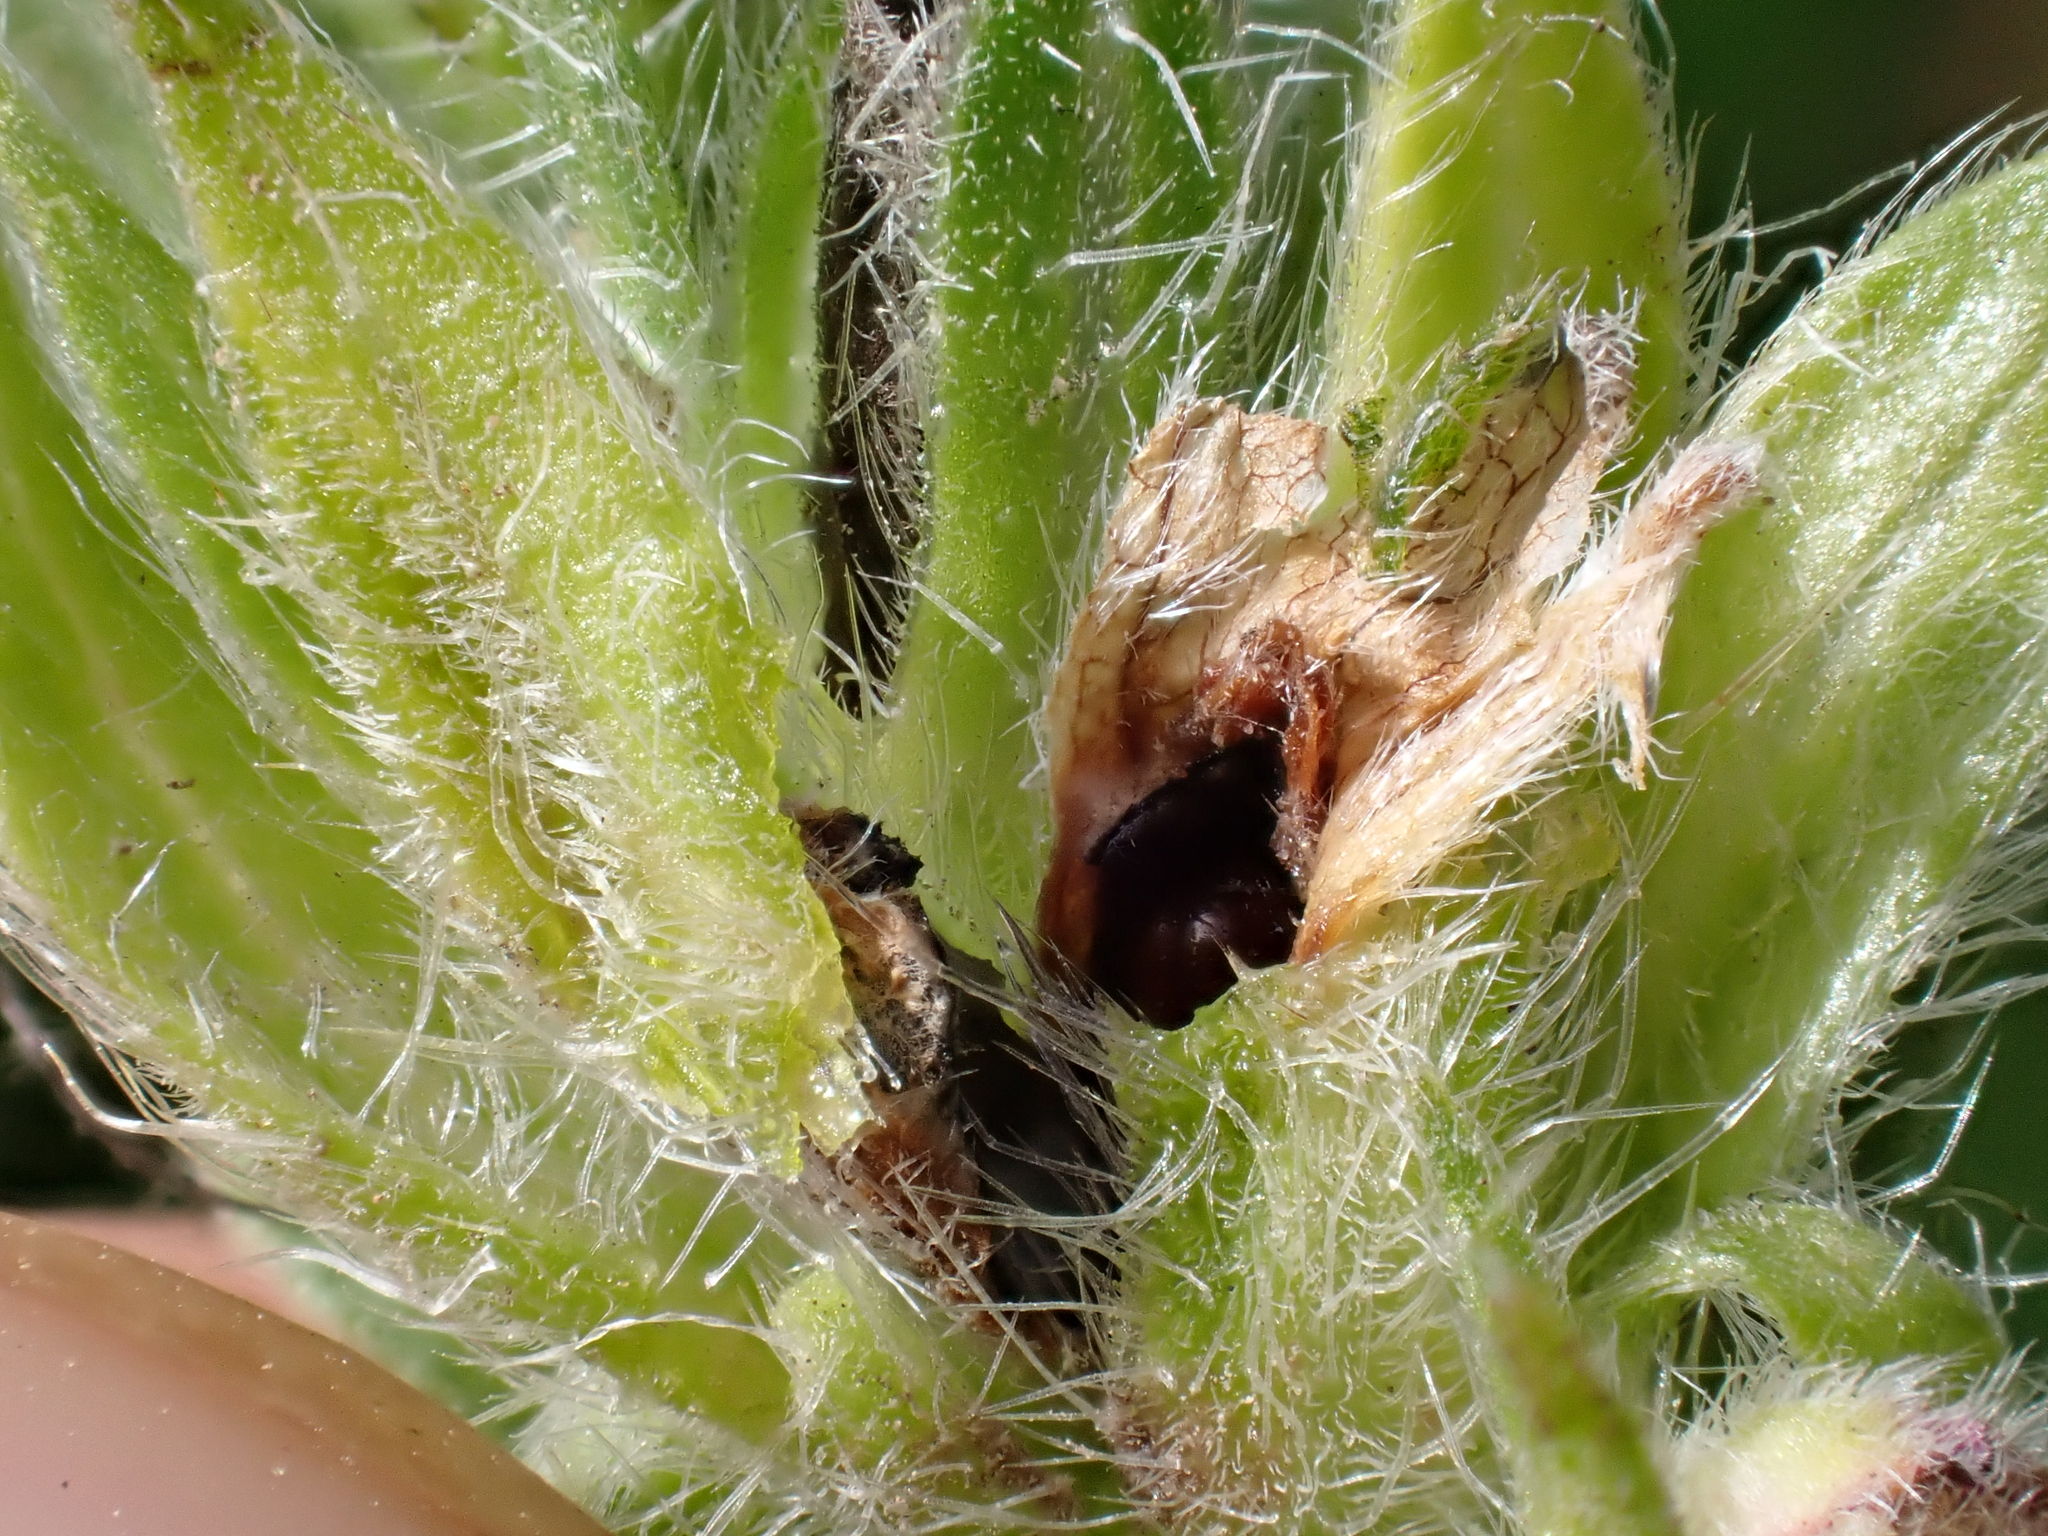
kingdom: Animalia
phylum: Arthropoda
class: Insecta
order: Diptera
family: Cecidomyiidae
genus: Asphondylia
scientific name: Asphondylia echii
